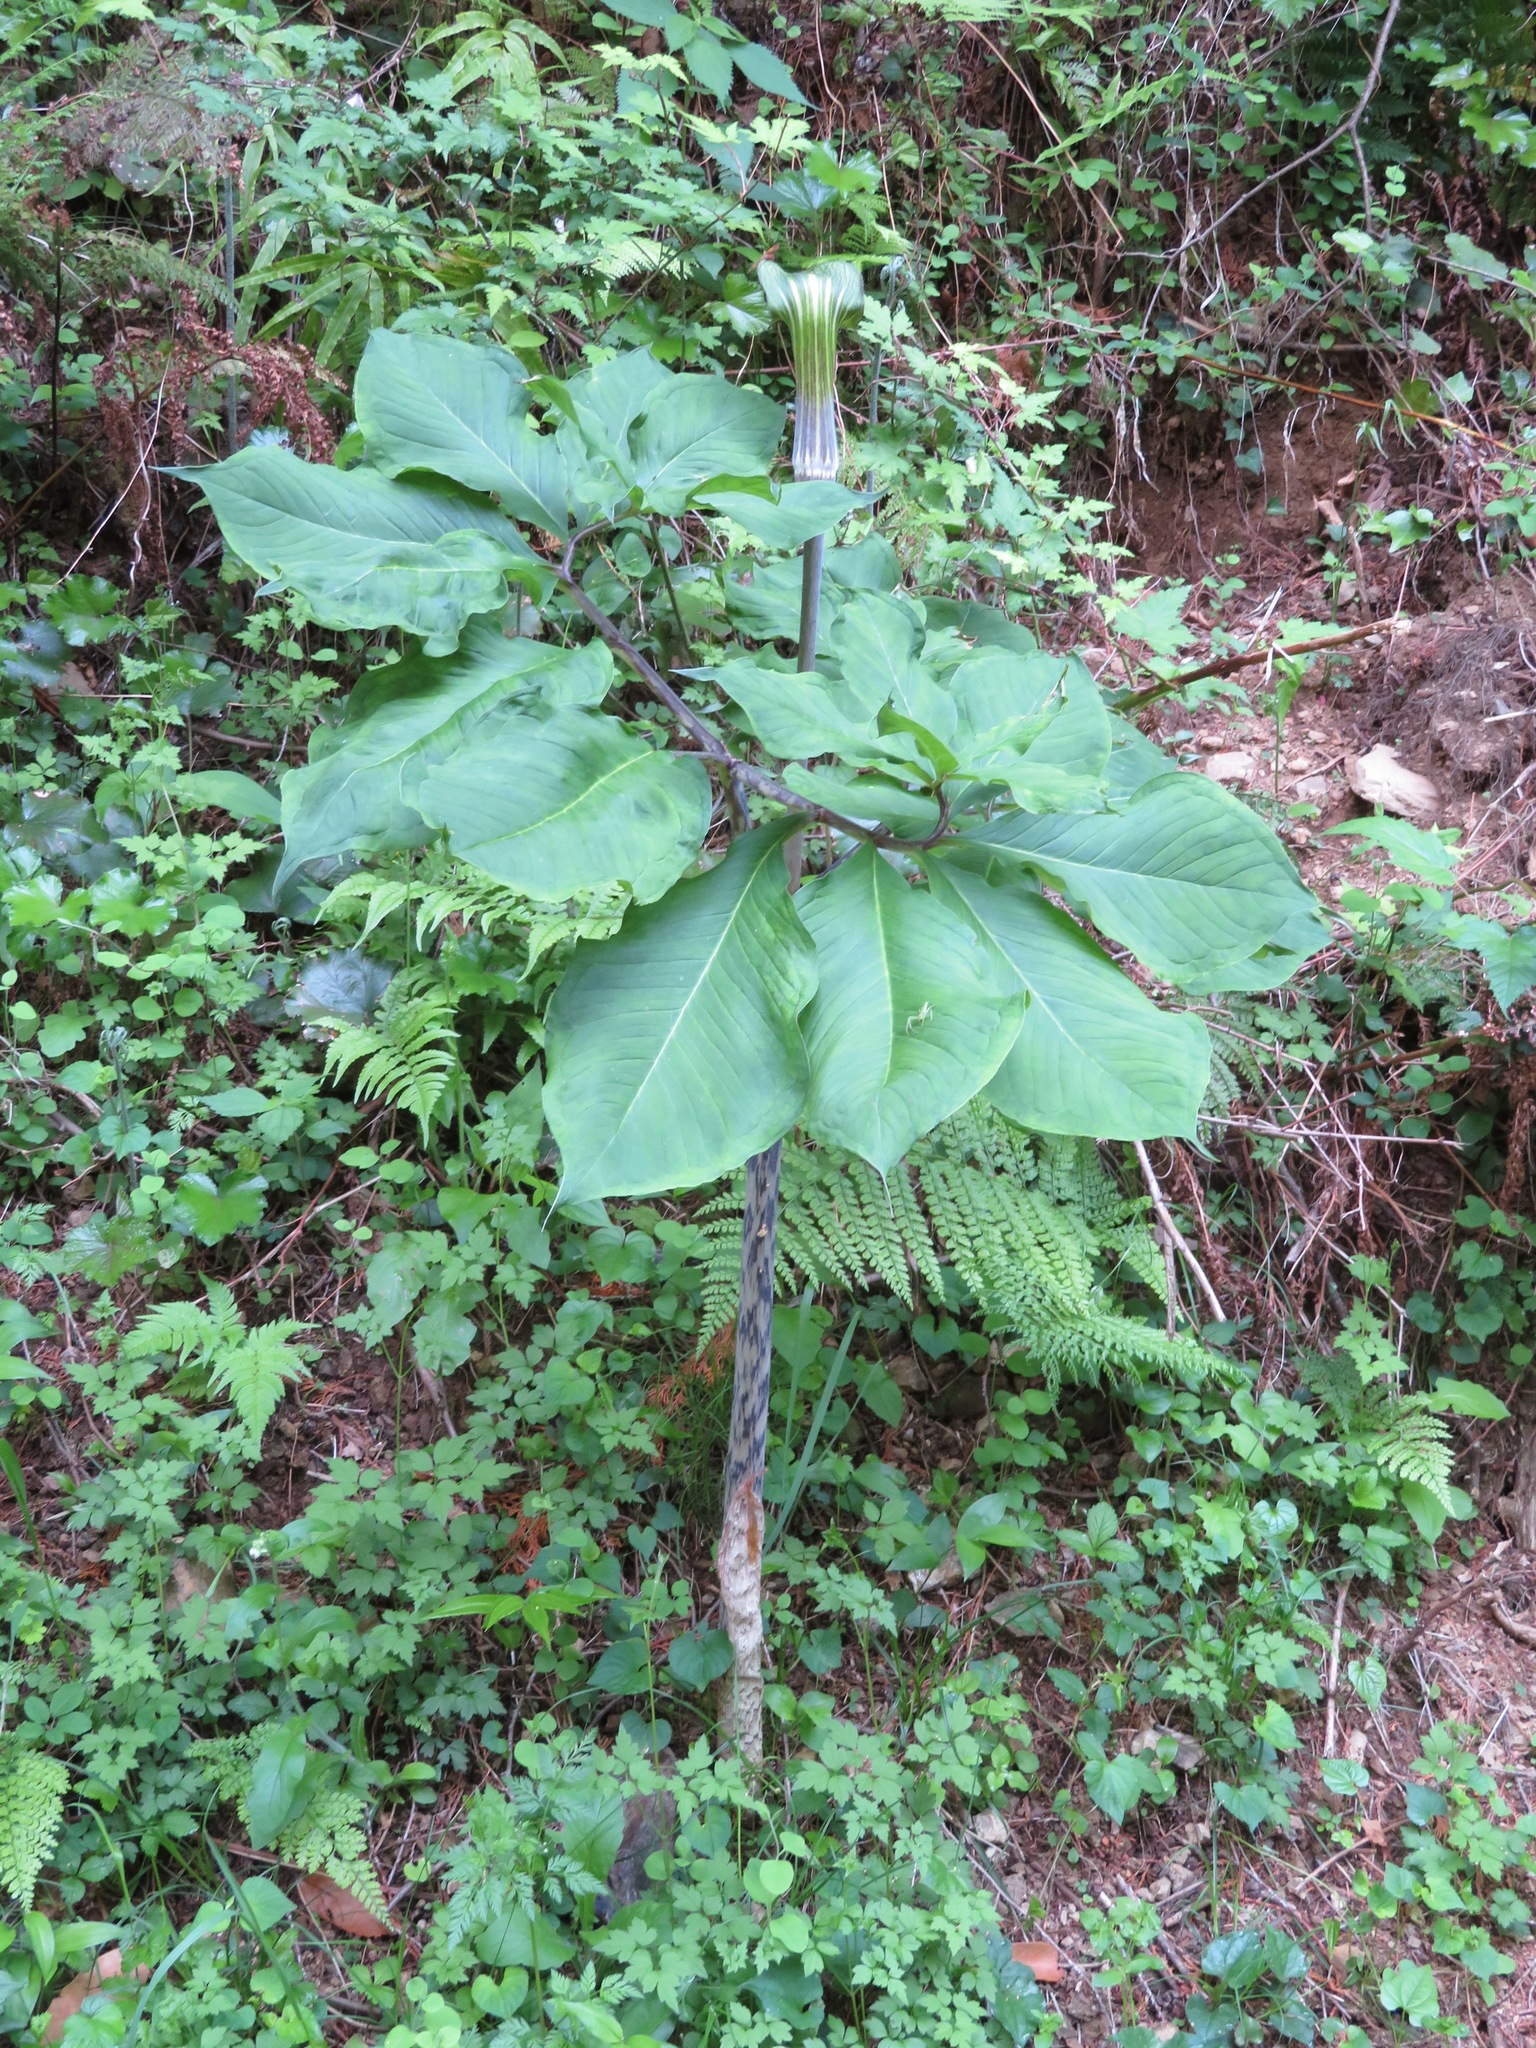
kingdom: Plantae
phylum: Tracheophyta
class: Liliopsida
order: Alismatales
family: Araceae
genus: Arisaema
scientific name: Arisaema serratum
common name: Japanese arisaema
